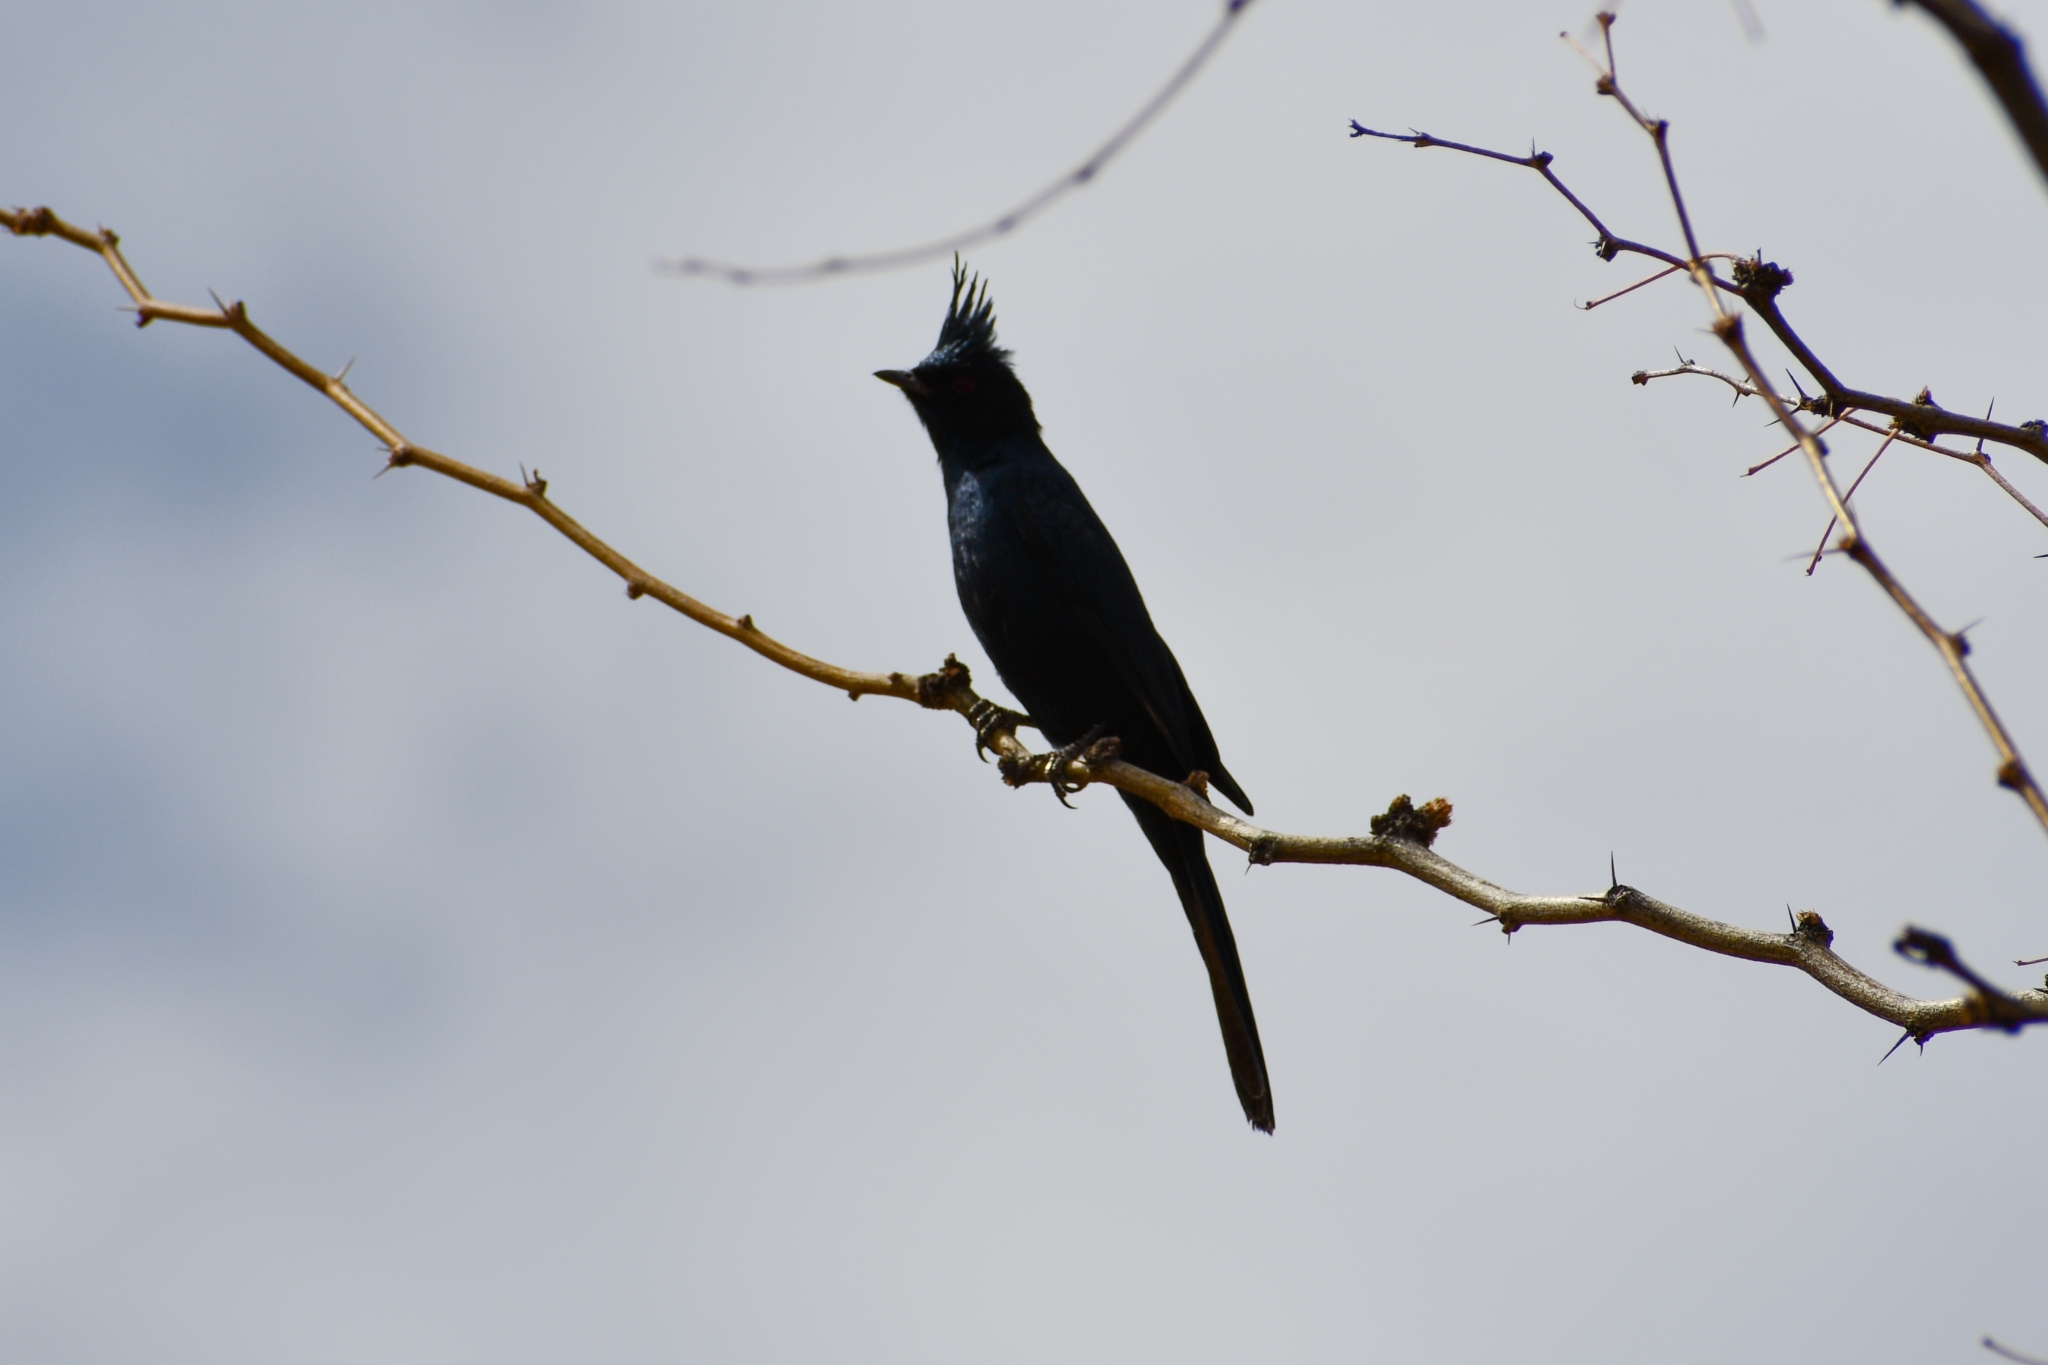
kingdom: Animalia
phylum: Chordata
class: Aves
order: Passeriformes
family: Ptilogonatidae
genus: Phainopepla
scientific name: Phainopepla nitens
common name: Phainopepla
